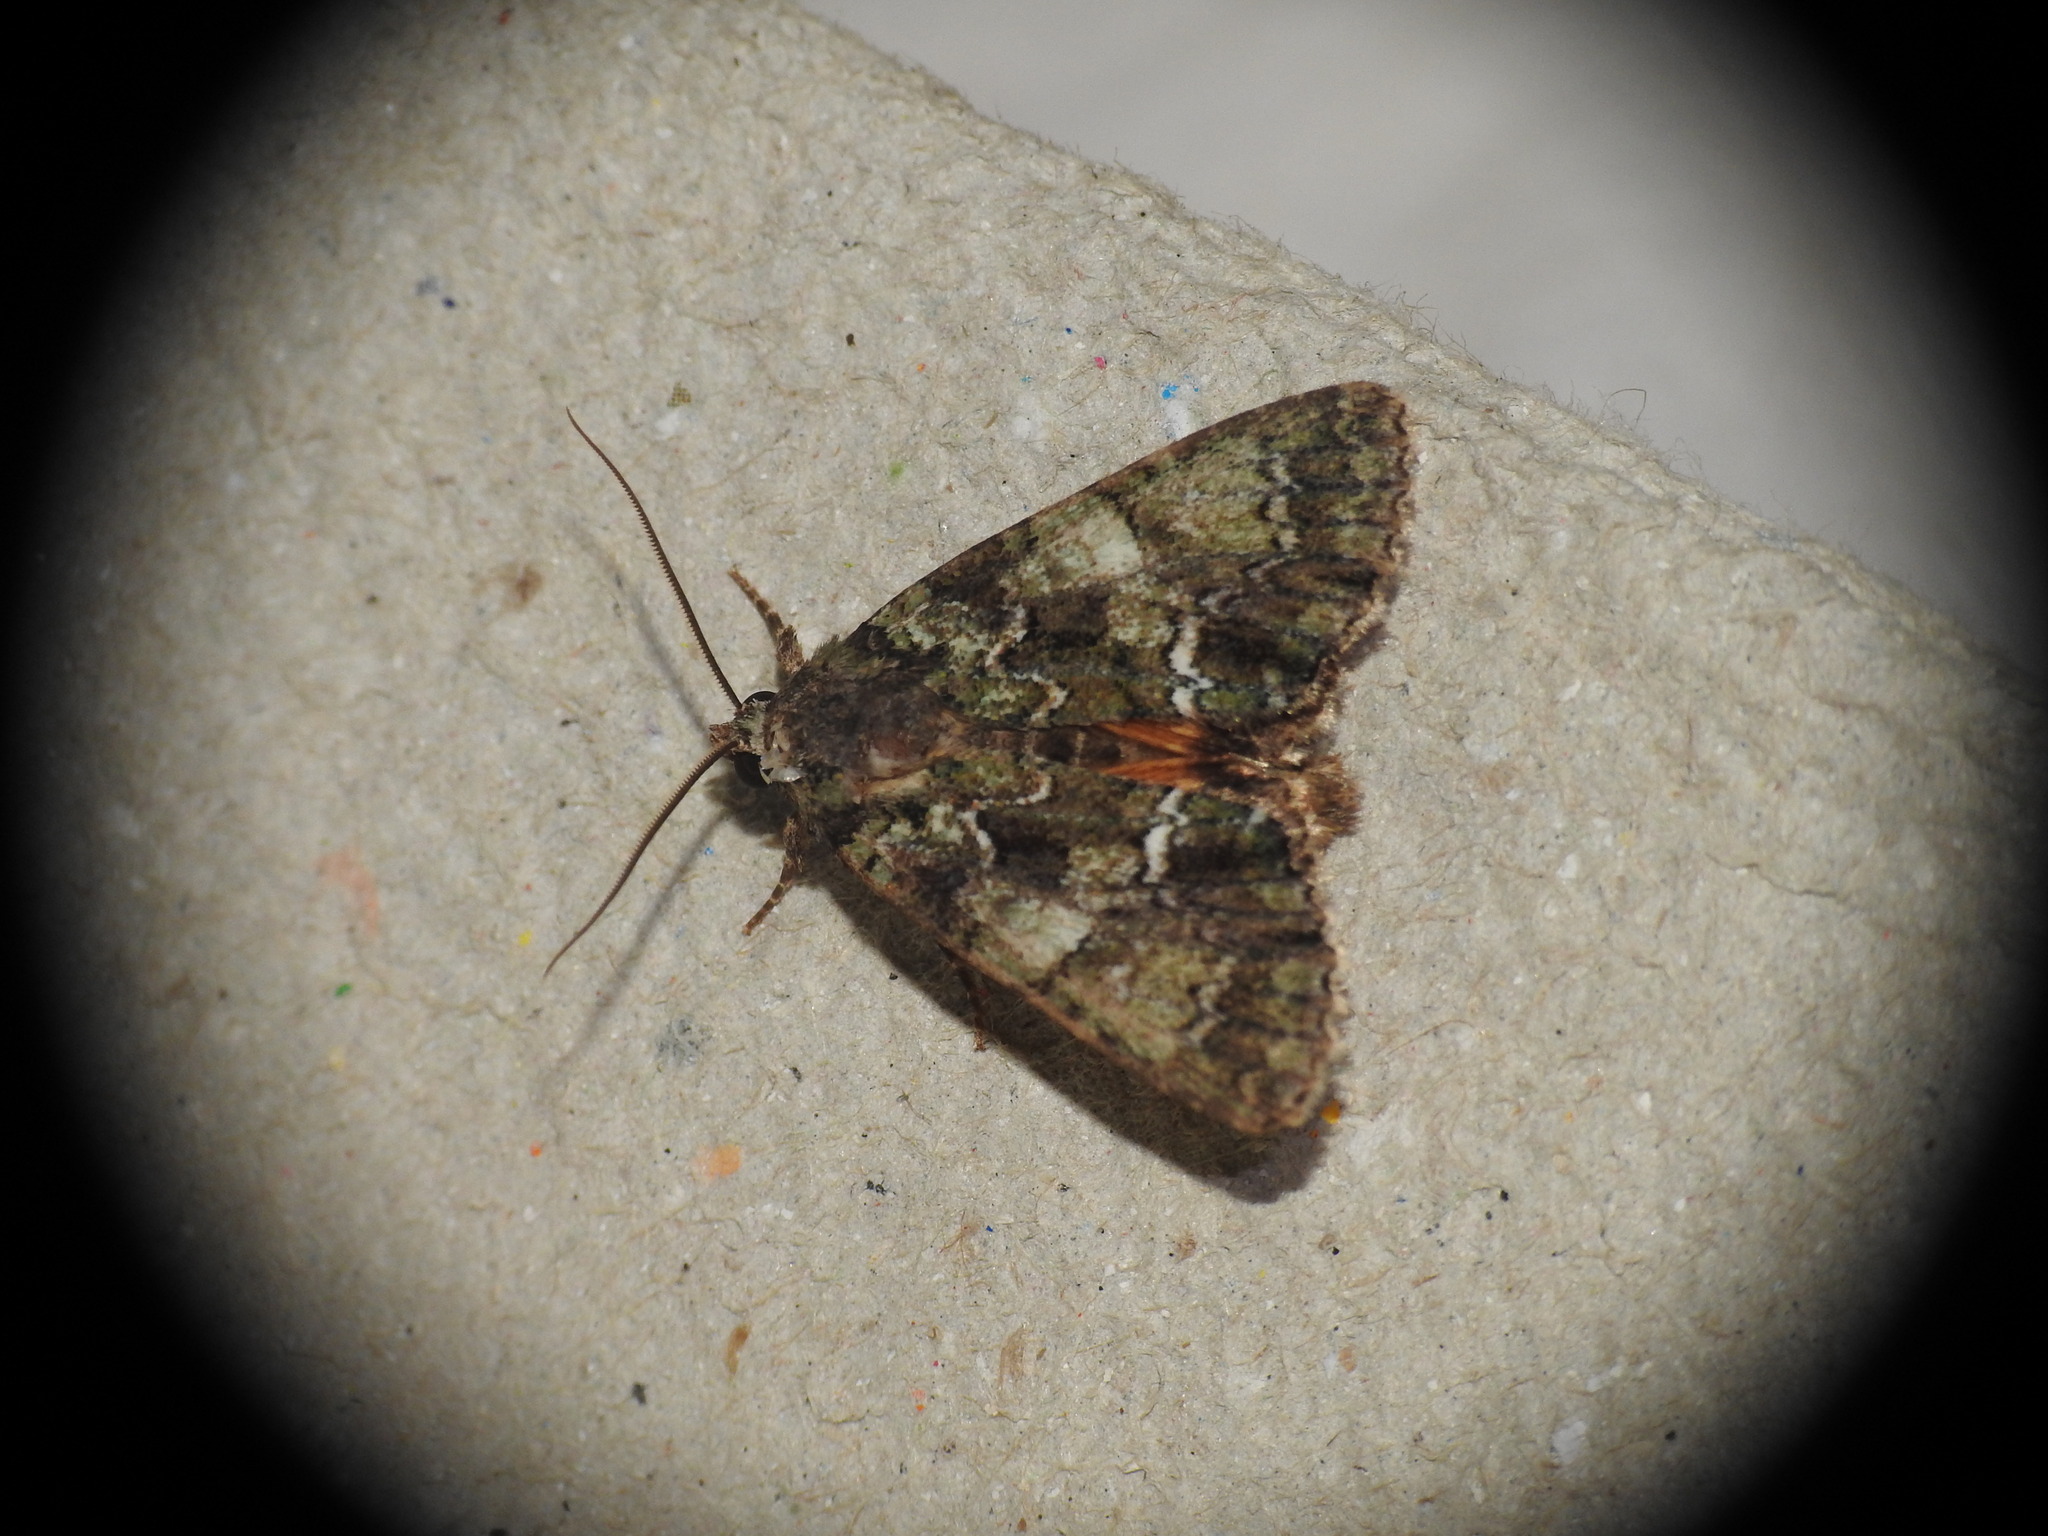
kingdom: Animalia
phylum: Arthropoda
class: Insecta
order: Lepidoptera
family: Noctuidae
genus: Polyphaenis
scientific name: Polyphaenis sericata
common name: Guernsey underwing
